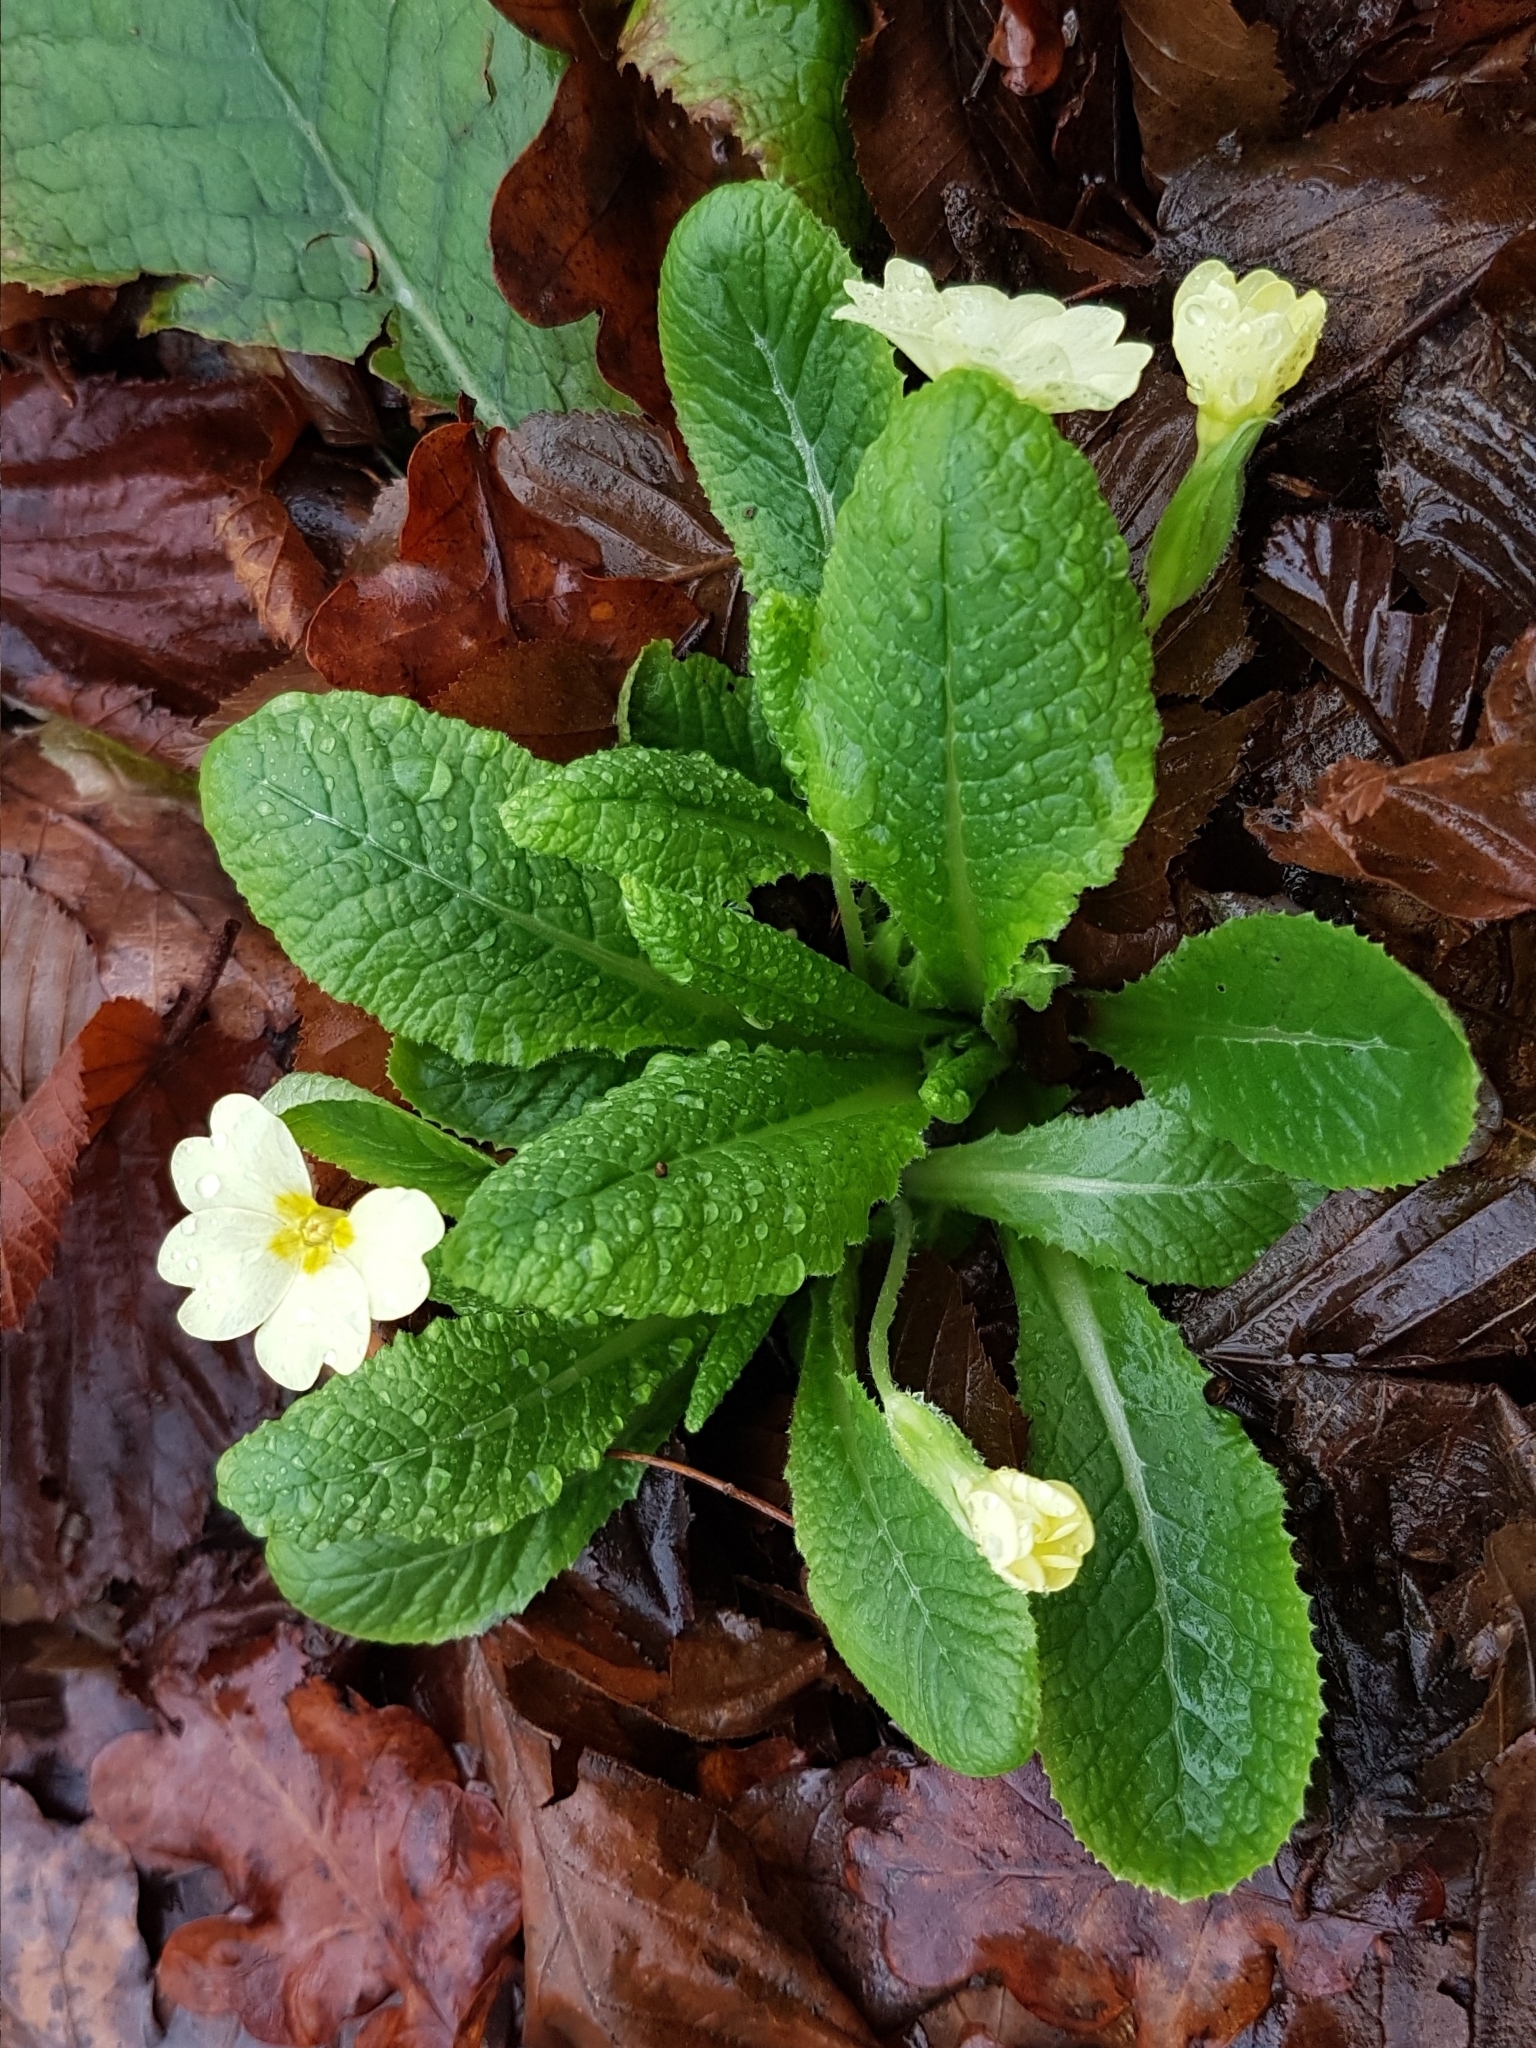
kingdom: Plantae
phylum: Tracheophyta
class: Magnoliopsida
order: Ericales
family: Primulaceae
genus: Primula
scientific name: Primula vulgaris
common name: Primrose
